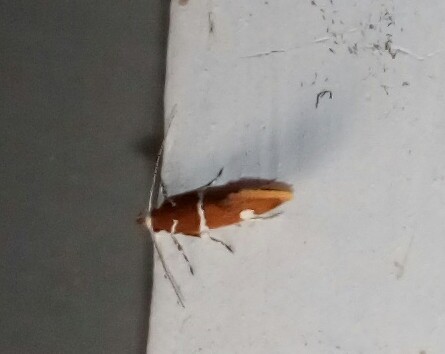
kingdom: Animalia
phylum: Arthropoda
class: Insecta
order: Lepidoptera
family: Oecophoridae
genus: Promalactis
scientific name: Promalactis suzukiella
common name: Moth
